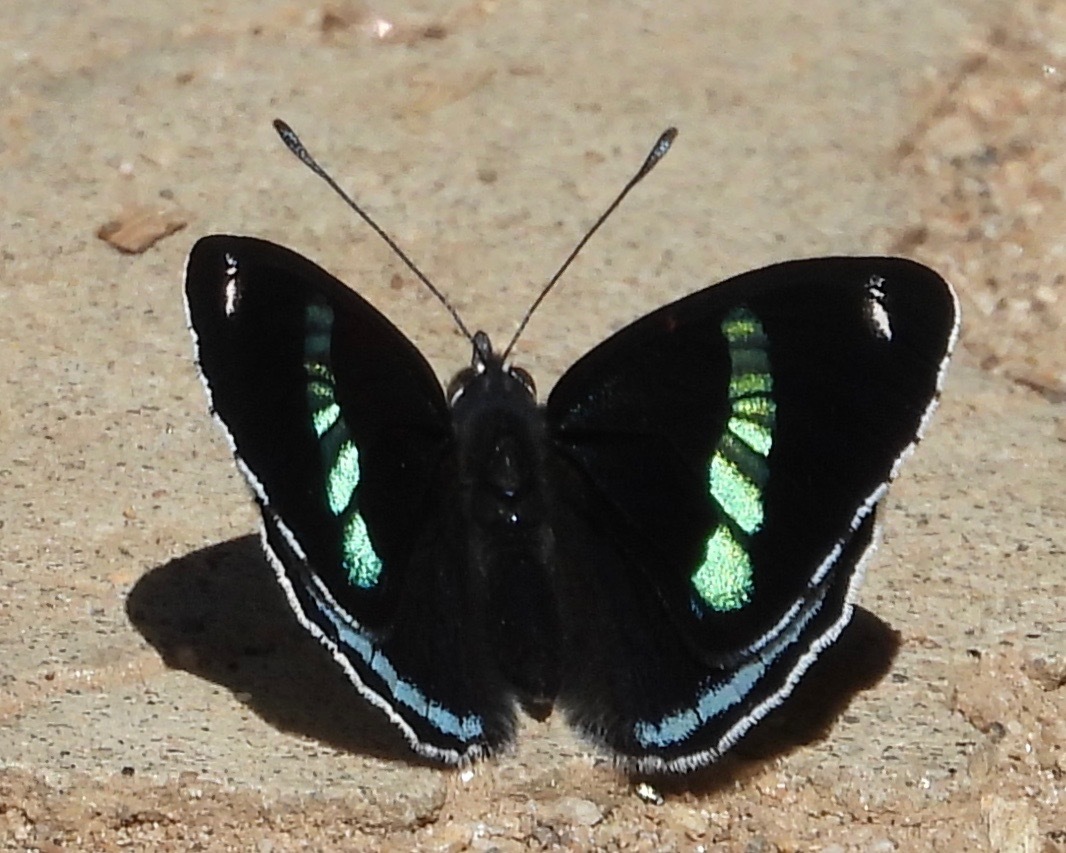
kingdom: Animalia
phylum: Arthropoda
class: Insecta
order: Lepidoptera
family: Nymphalidae
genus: Diaethria
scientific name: Diaethria anna
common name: Anna’s eighty-eight
